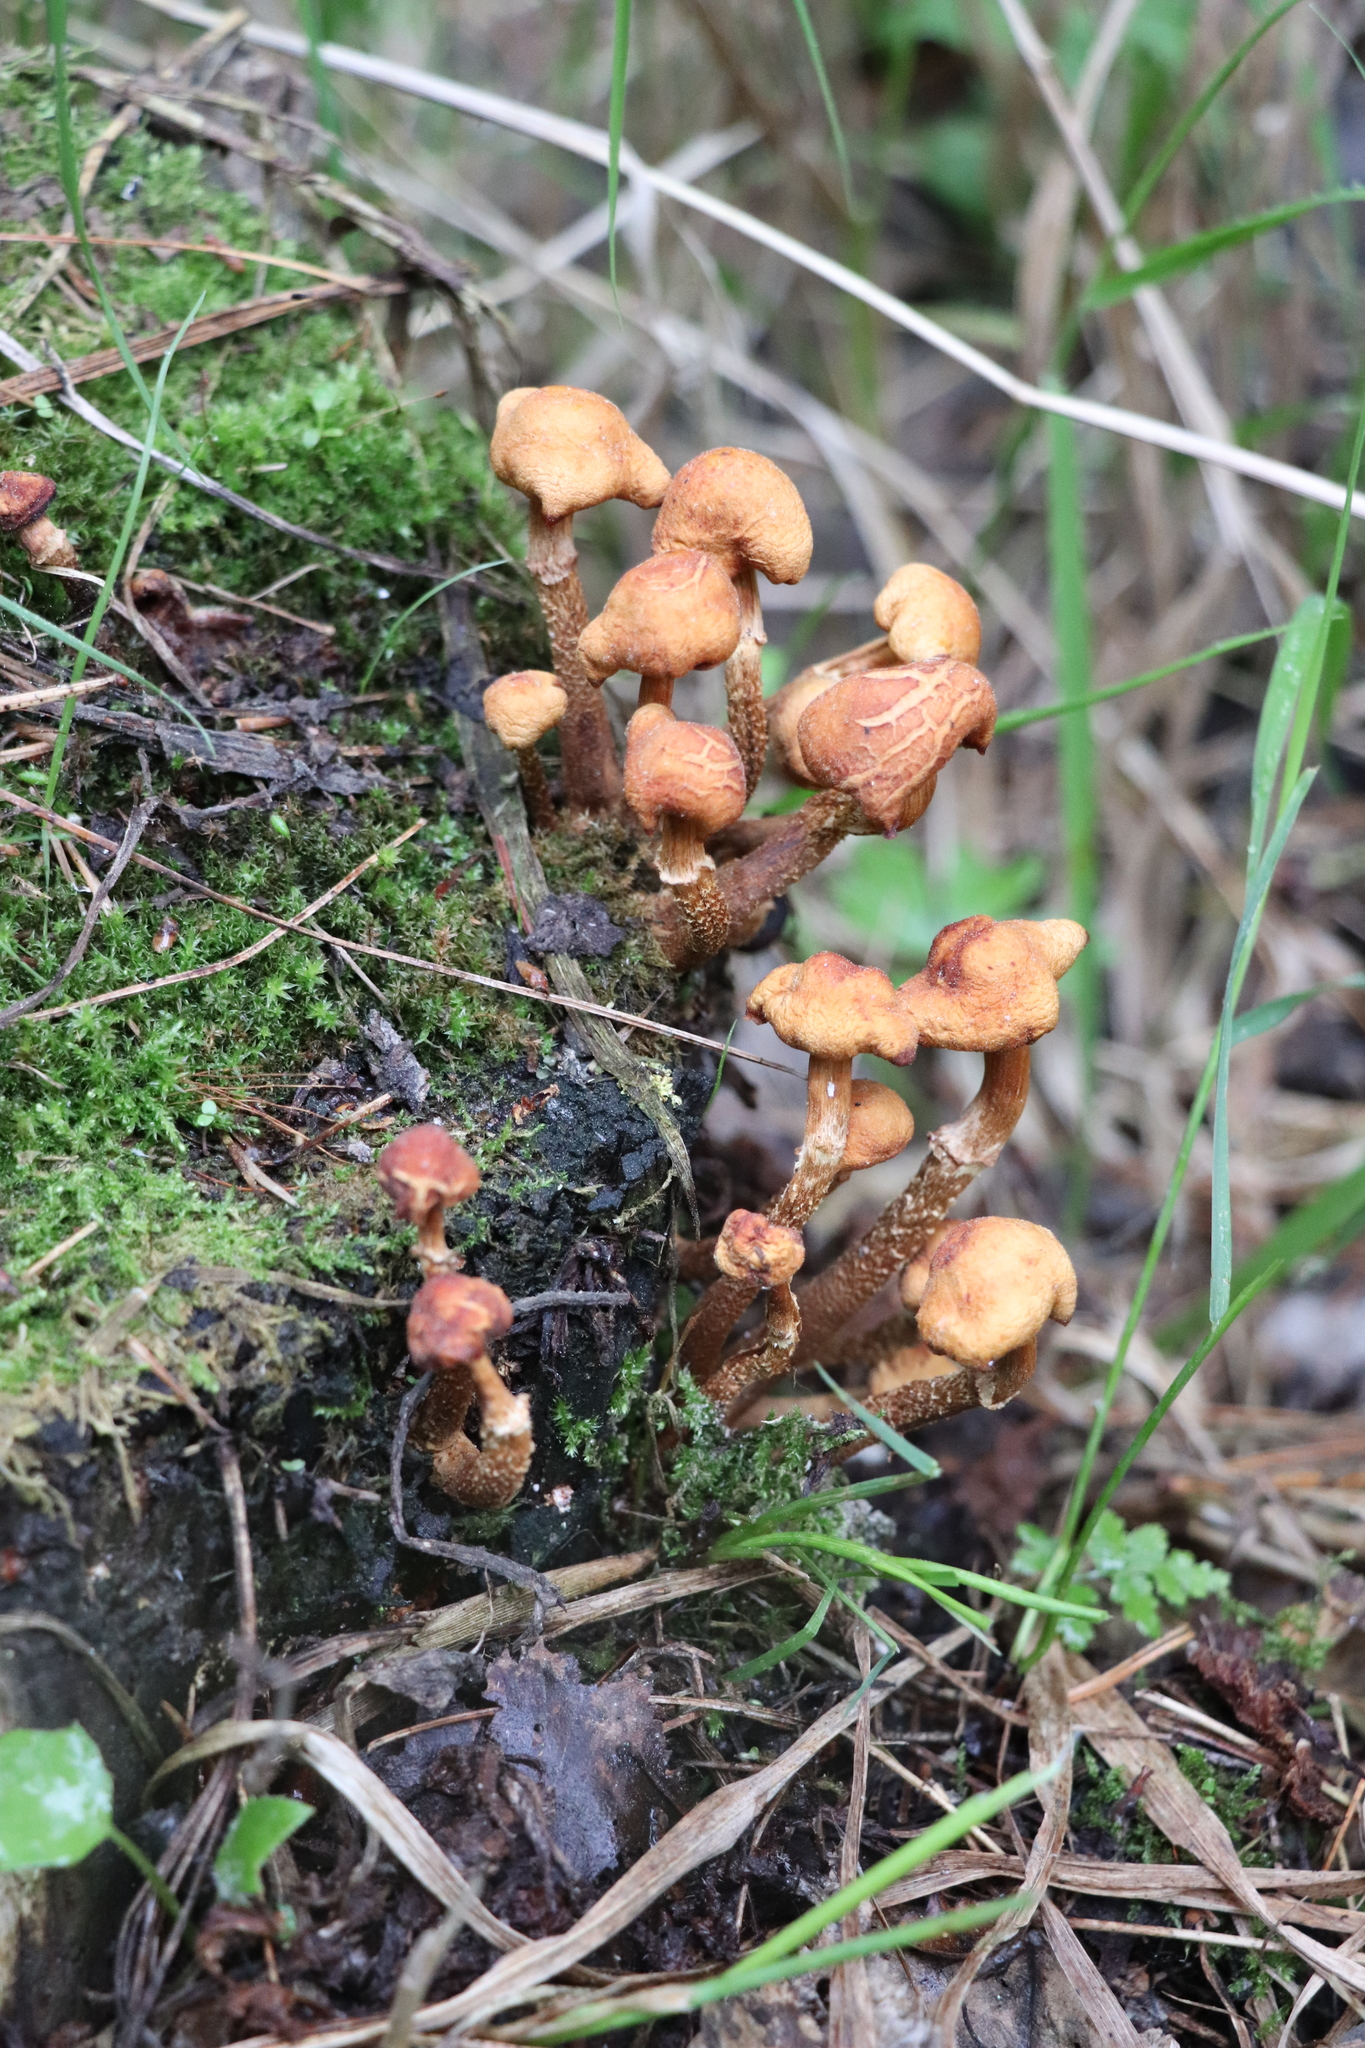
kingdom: Fungi
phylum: Basidiomycota
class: Agaricomycetes
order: Agaricales
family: Strophariaceae
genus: Kuehneromyces
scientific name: Kuehneromyces mutabilis
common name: Sheathed woodtuft
